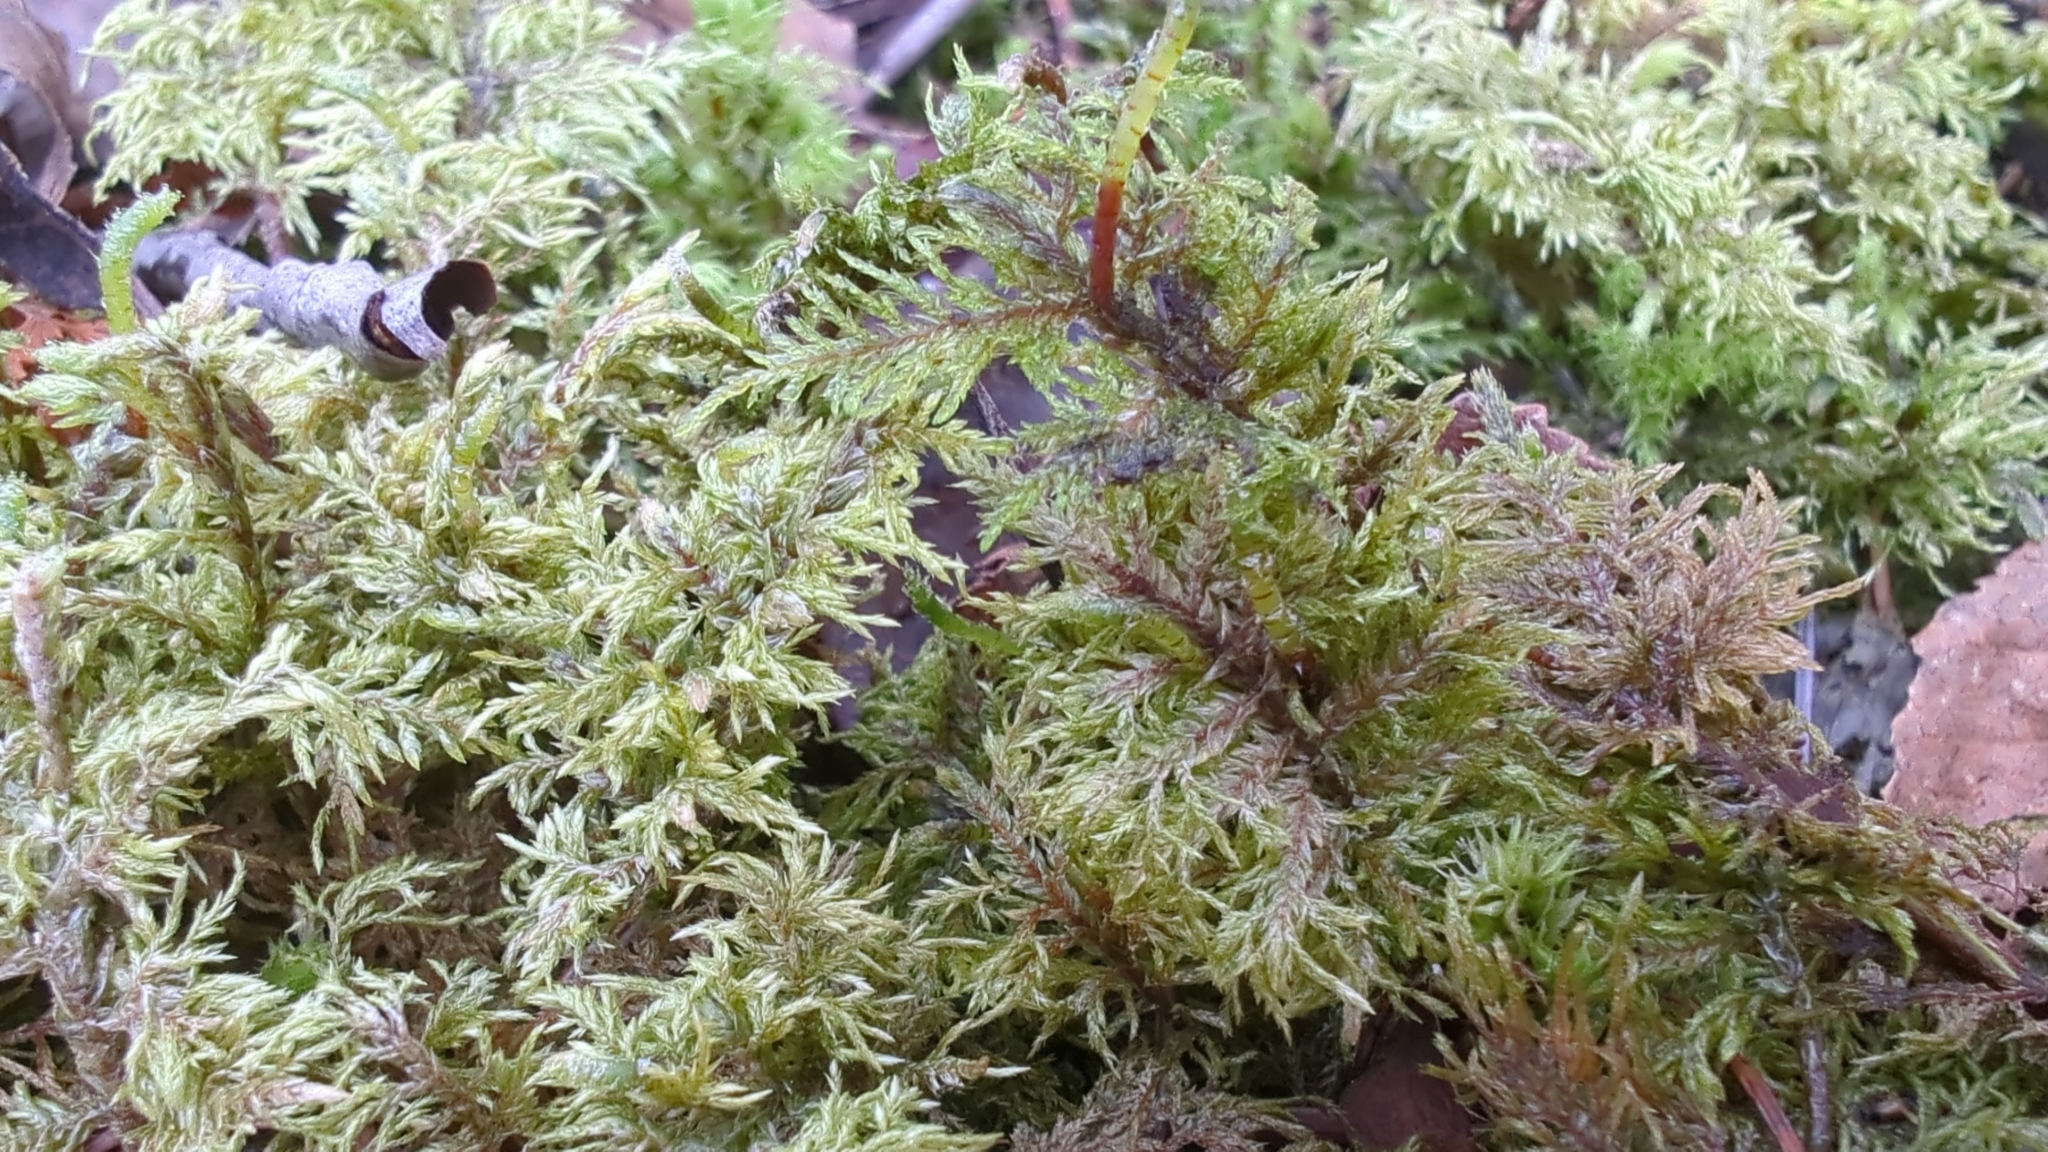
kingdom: Plantae
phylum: Bryophyta
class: Bryopsida
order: Hypnales
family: Hylocomiaceae
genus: Hylocomium
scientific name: Hylocomium splendens
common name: Stairstep moss
